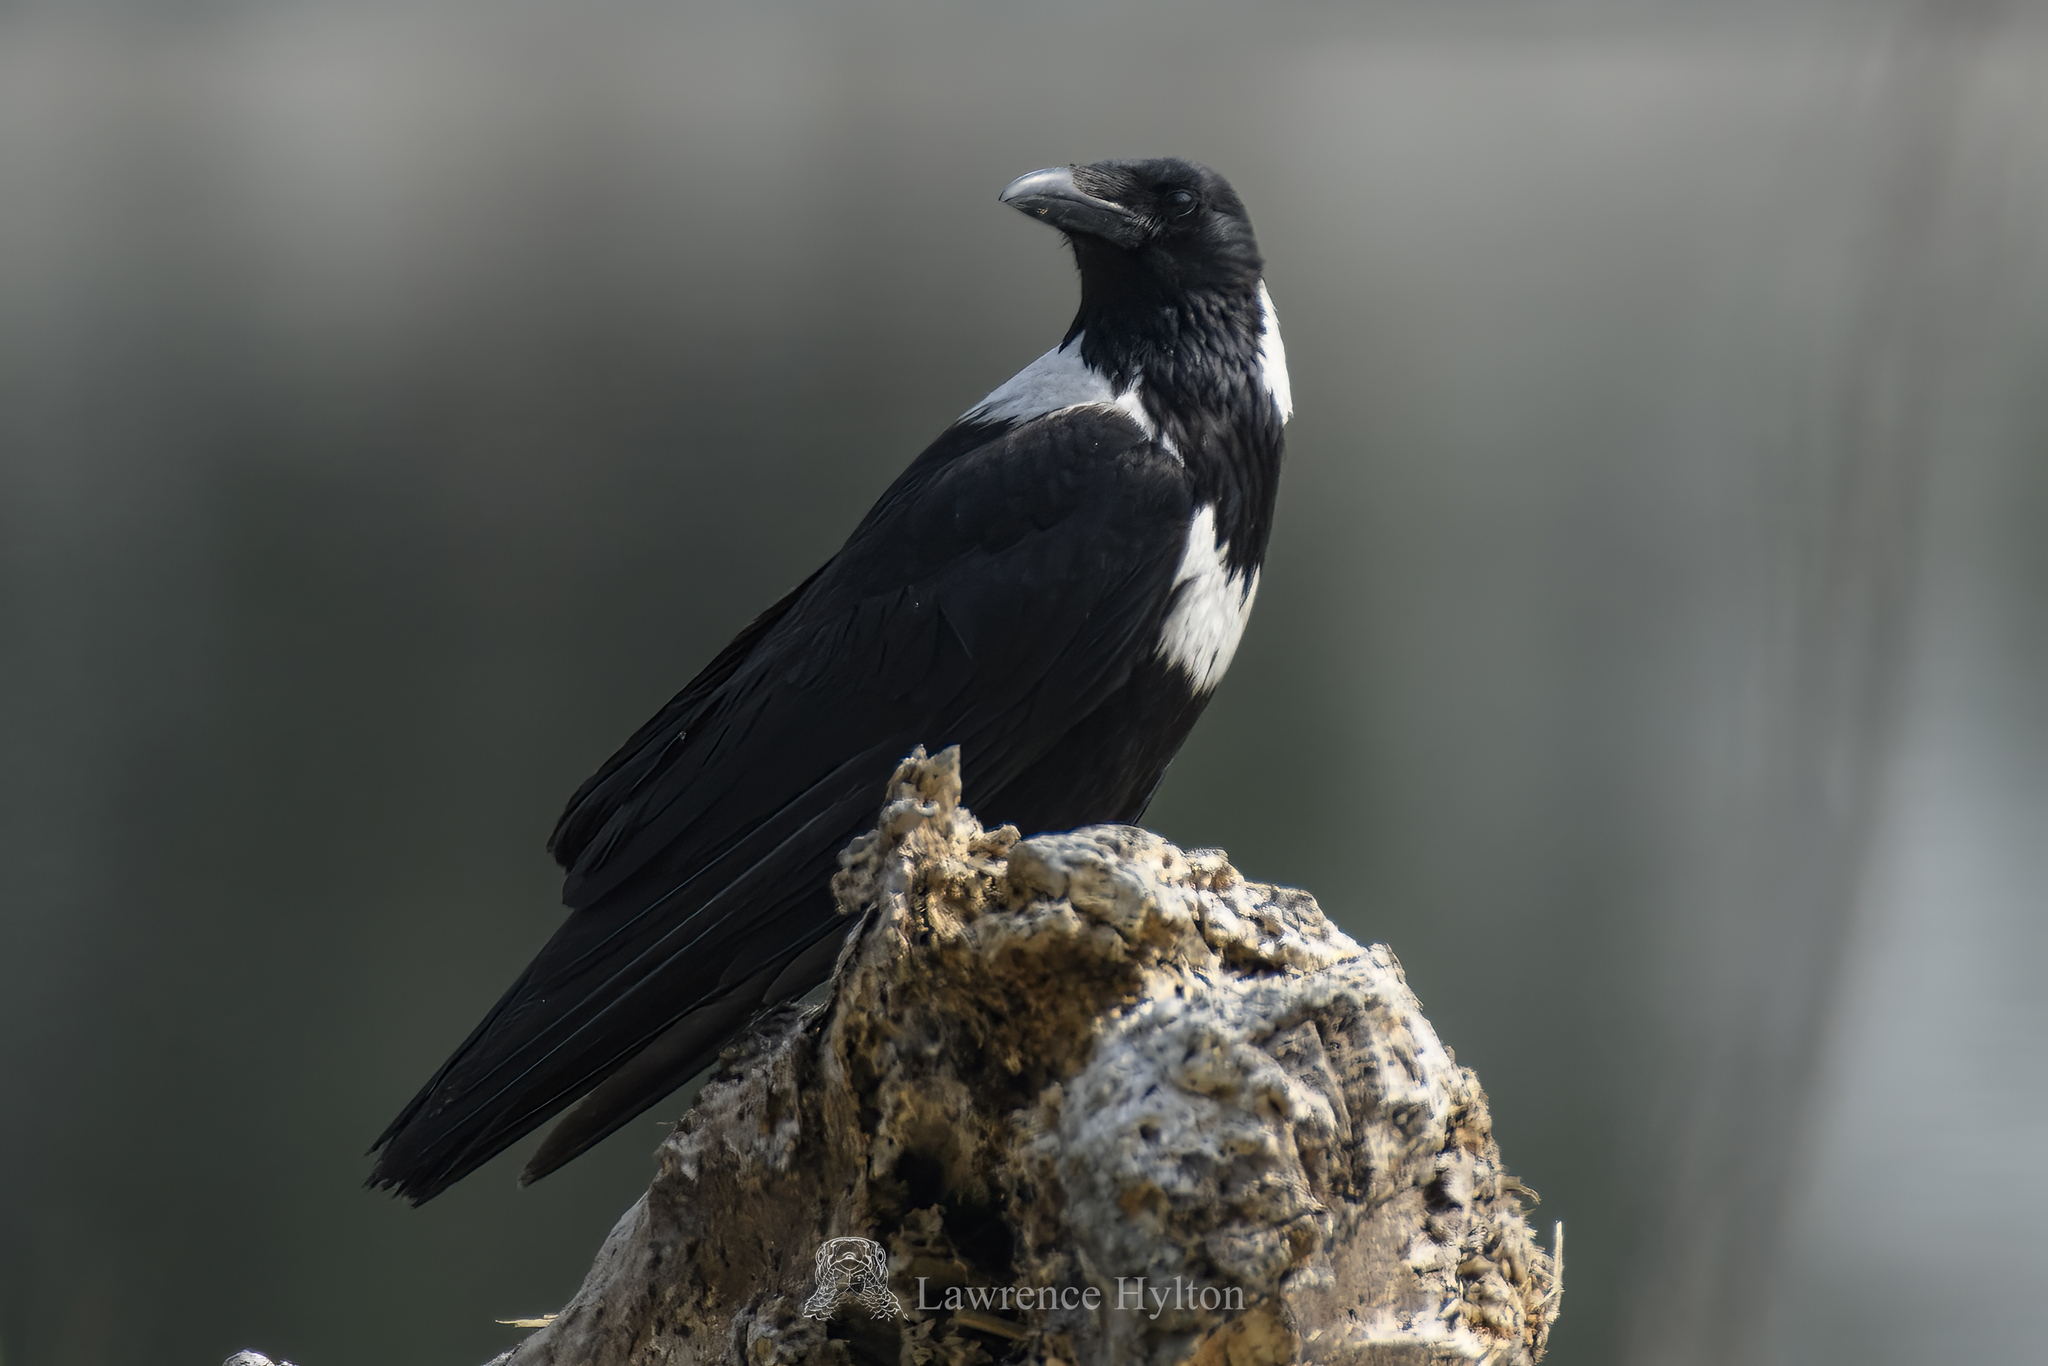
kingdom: Animalia
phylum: Chordata
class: Aves
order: Passeriformes
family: Corvidae
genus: Corvus
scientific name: Corvus pectoralis
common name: Collared crow
